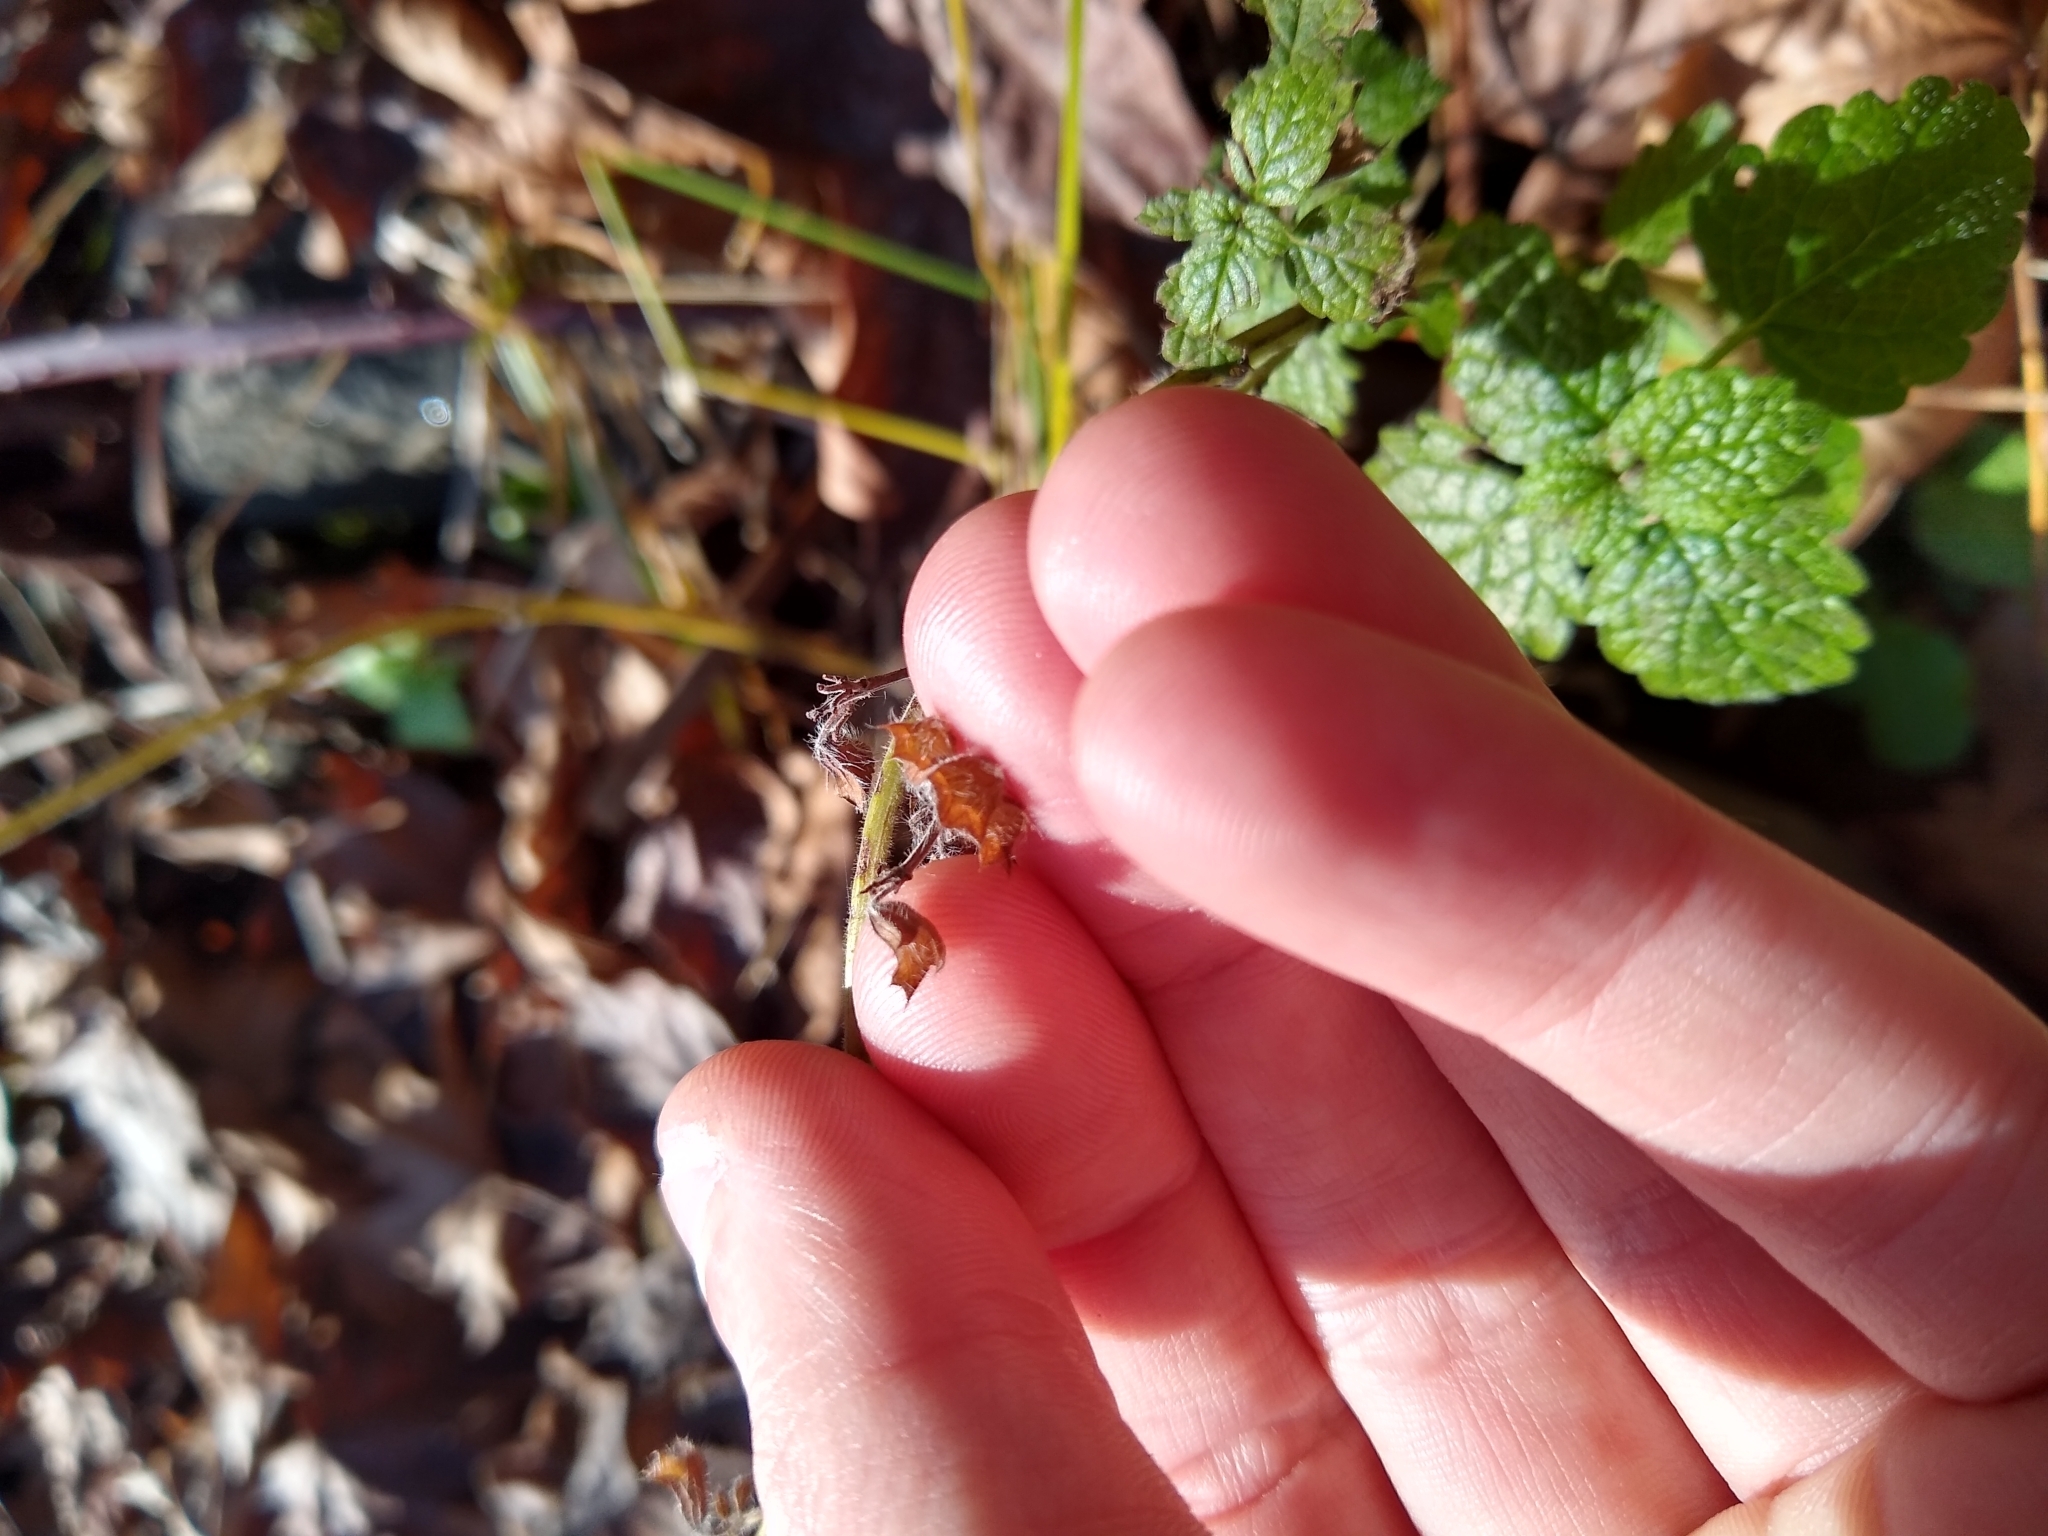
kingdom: Plantae
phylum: Tracheophyta
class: Magnoliopsida
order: Lamiales
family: Lamiaceae
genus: Melissa
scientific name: Melissa officinalis
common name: Balm
